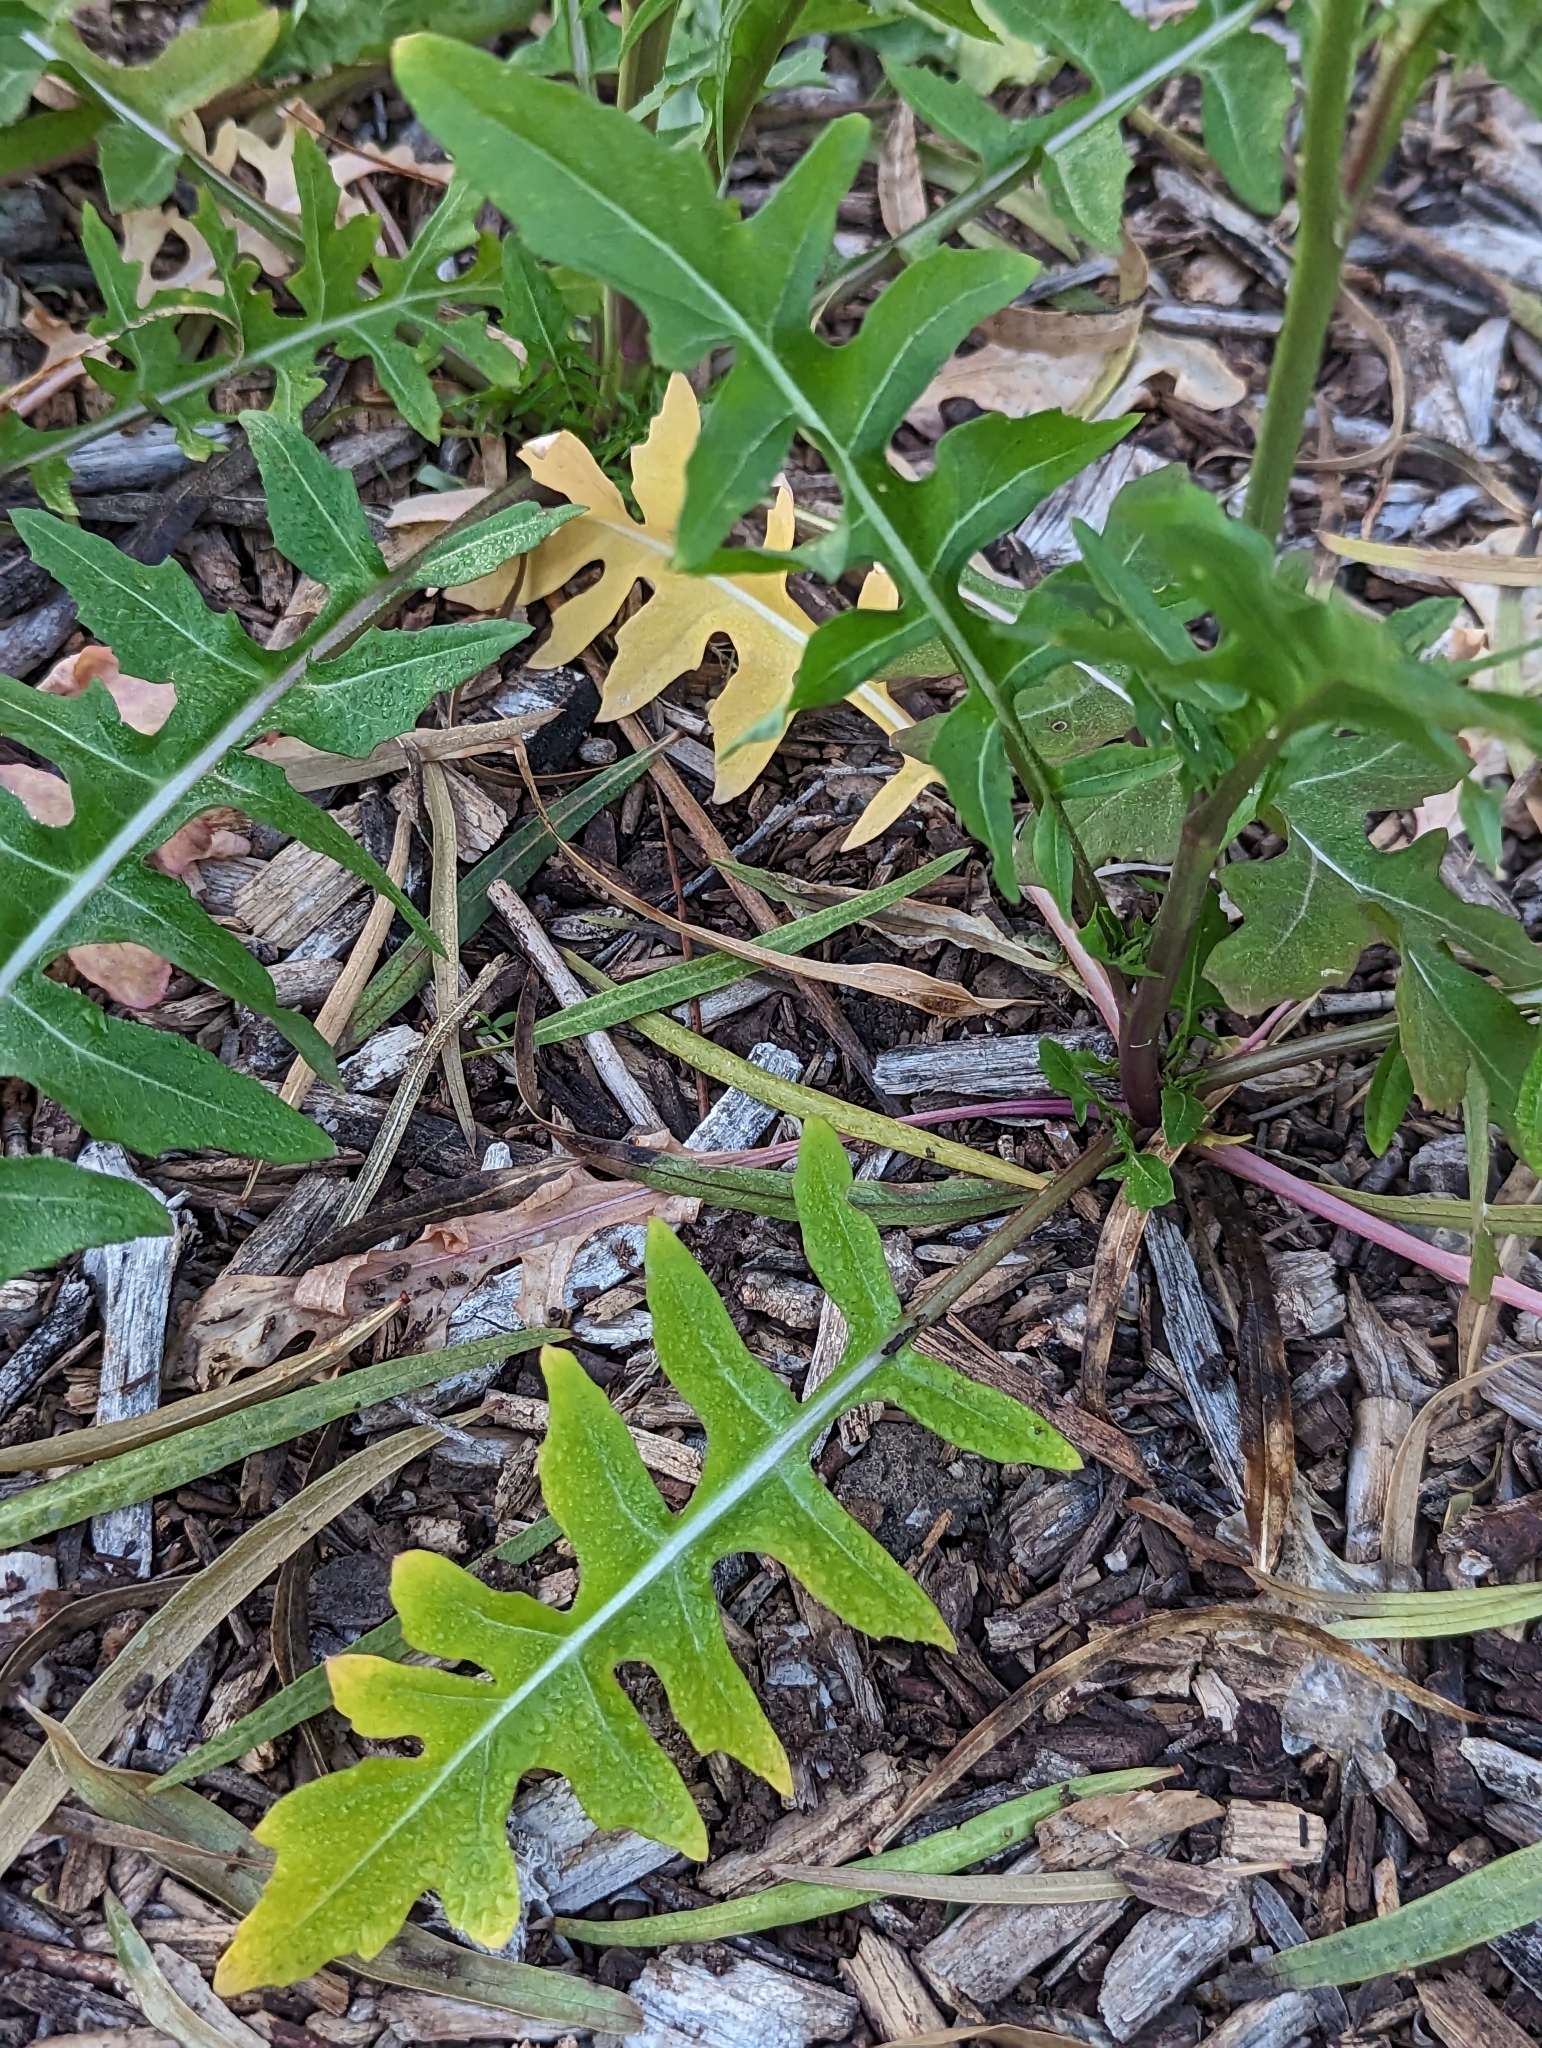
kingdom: Plantae
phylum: Tracheophyta
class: Magnoliopsida
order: Brassicales
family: Brassicaceae
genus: Sisymbrium
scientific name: Sisymbrium irio
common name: London rocket
